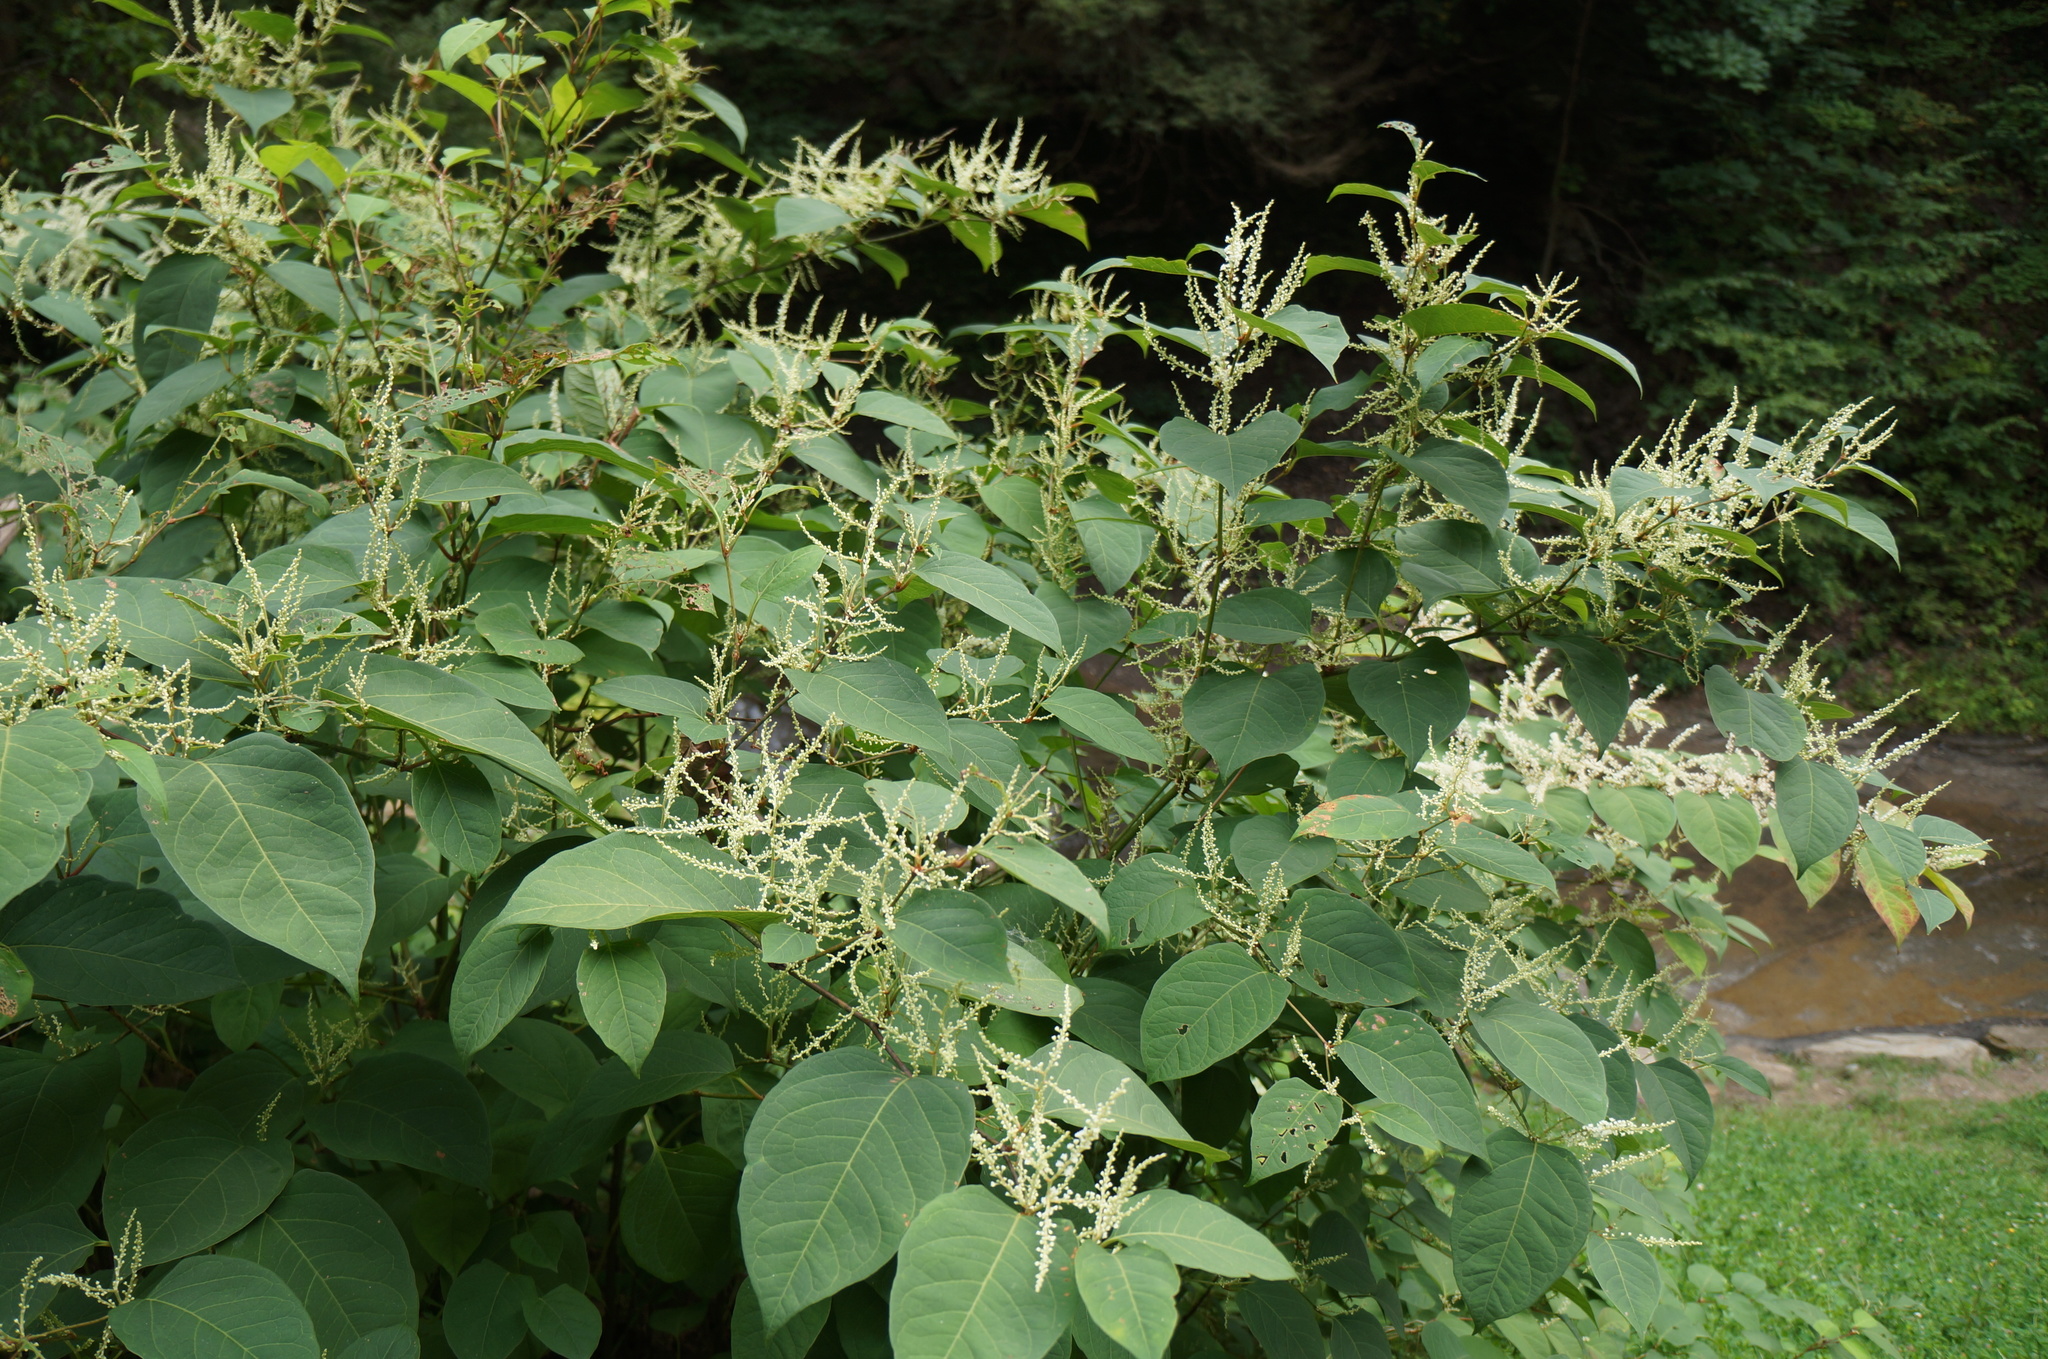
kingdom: Plantae
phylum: Tracheophyta
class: Magnoliopsida
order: Caryophyllales
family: Polygonaceae
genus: Reynoutria
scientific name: Reynoutria japonica
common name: Japanese knotweed
